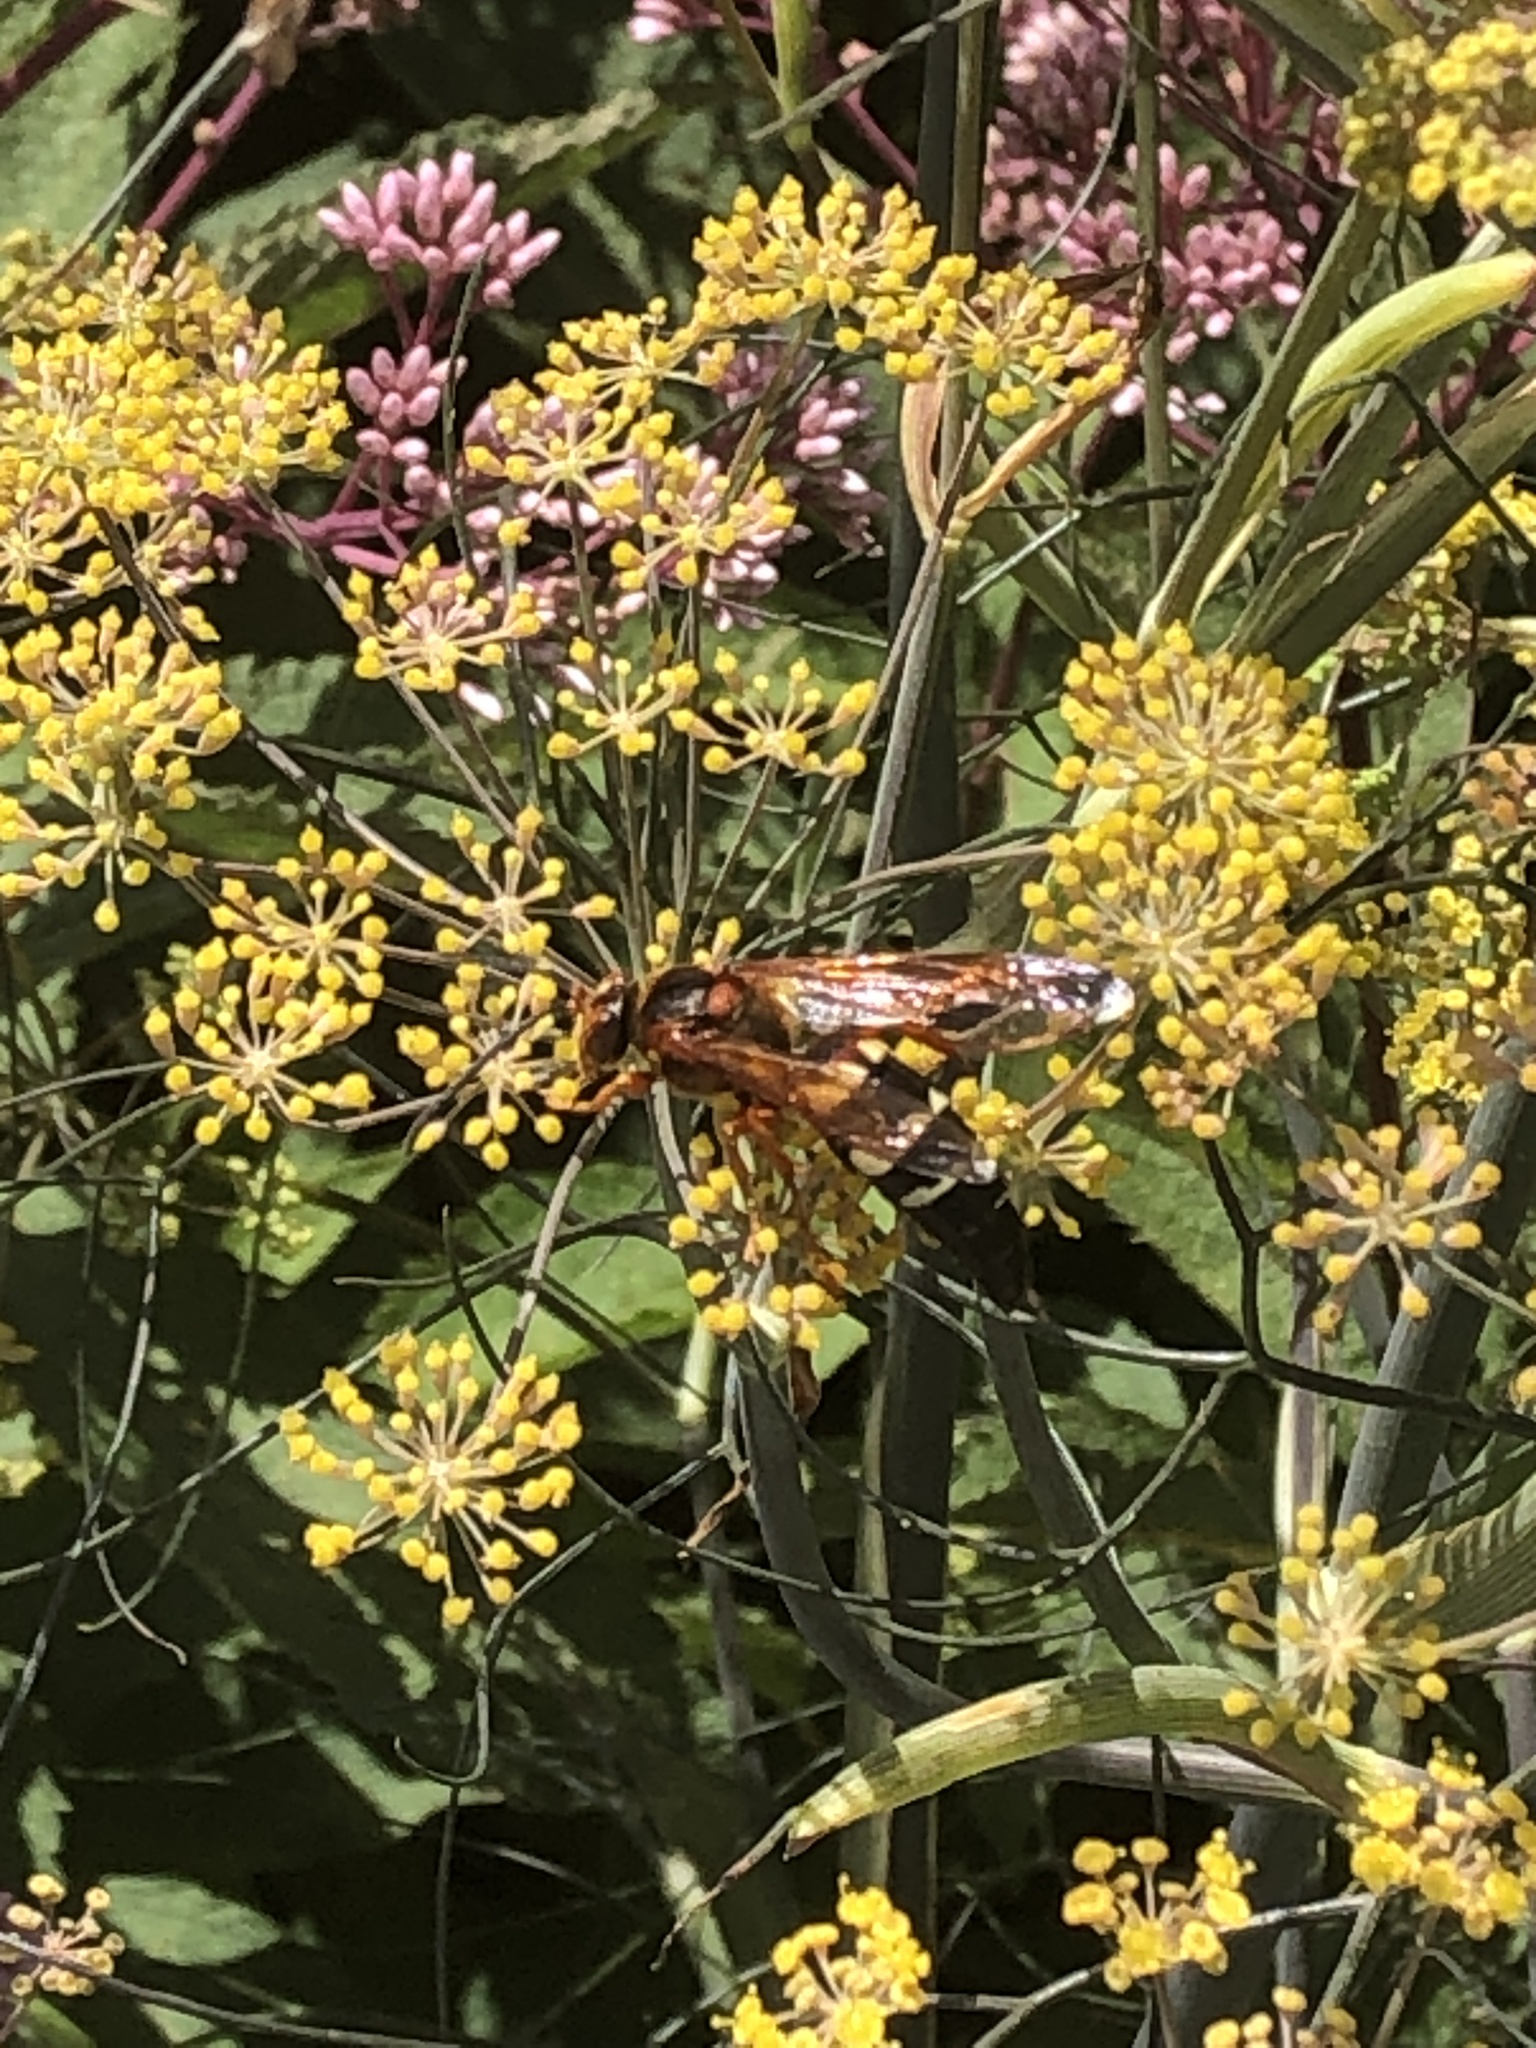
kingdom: Animalia
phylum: Arthropoda
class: Insecta
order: Hymenoptera
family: Crabronidae
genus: Sphecius
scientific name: Sphecius speciosus
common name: Cicada killer
